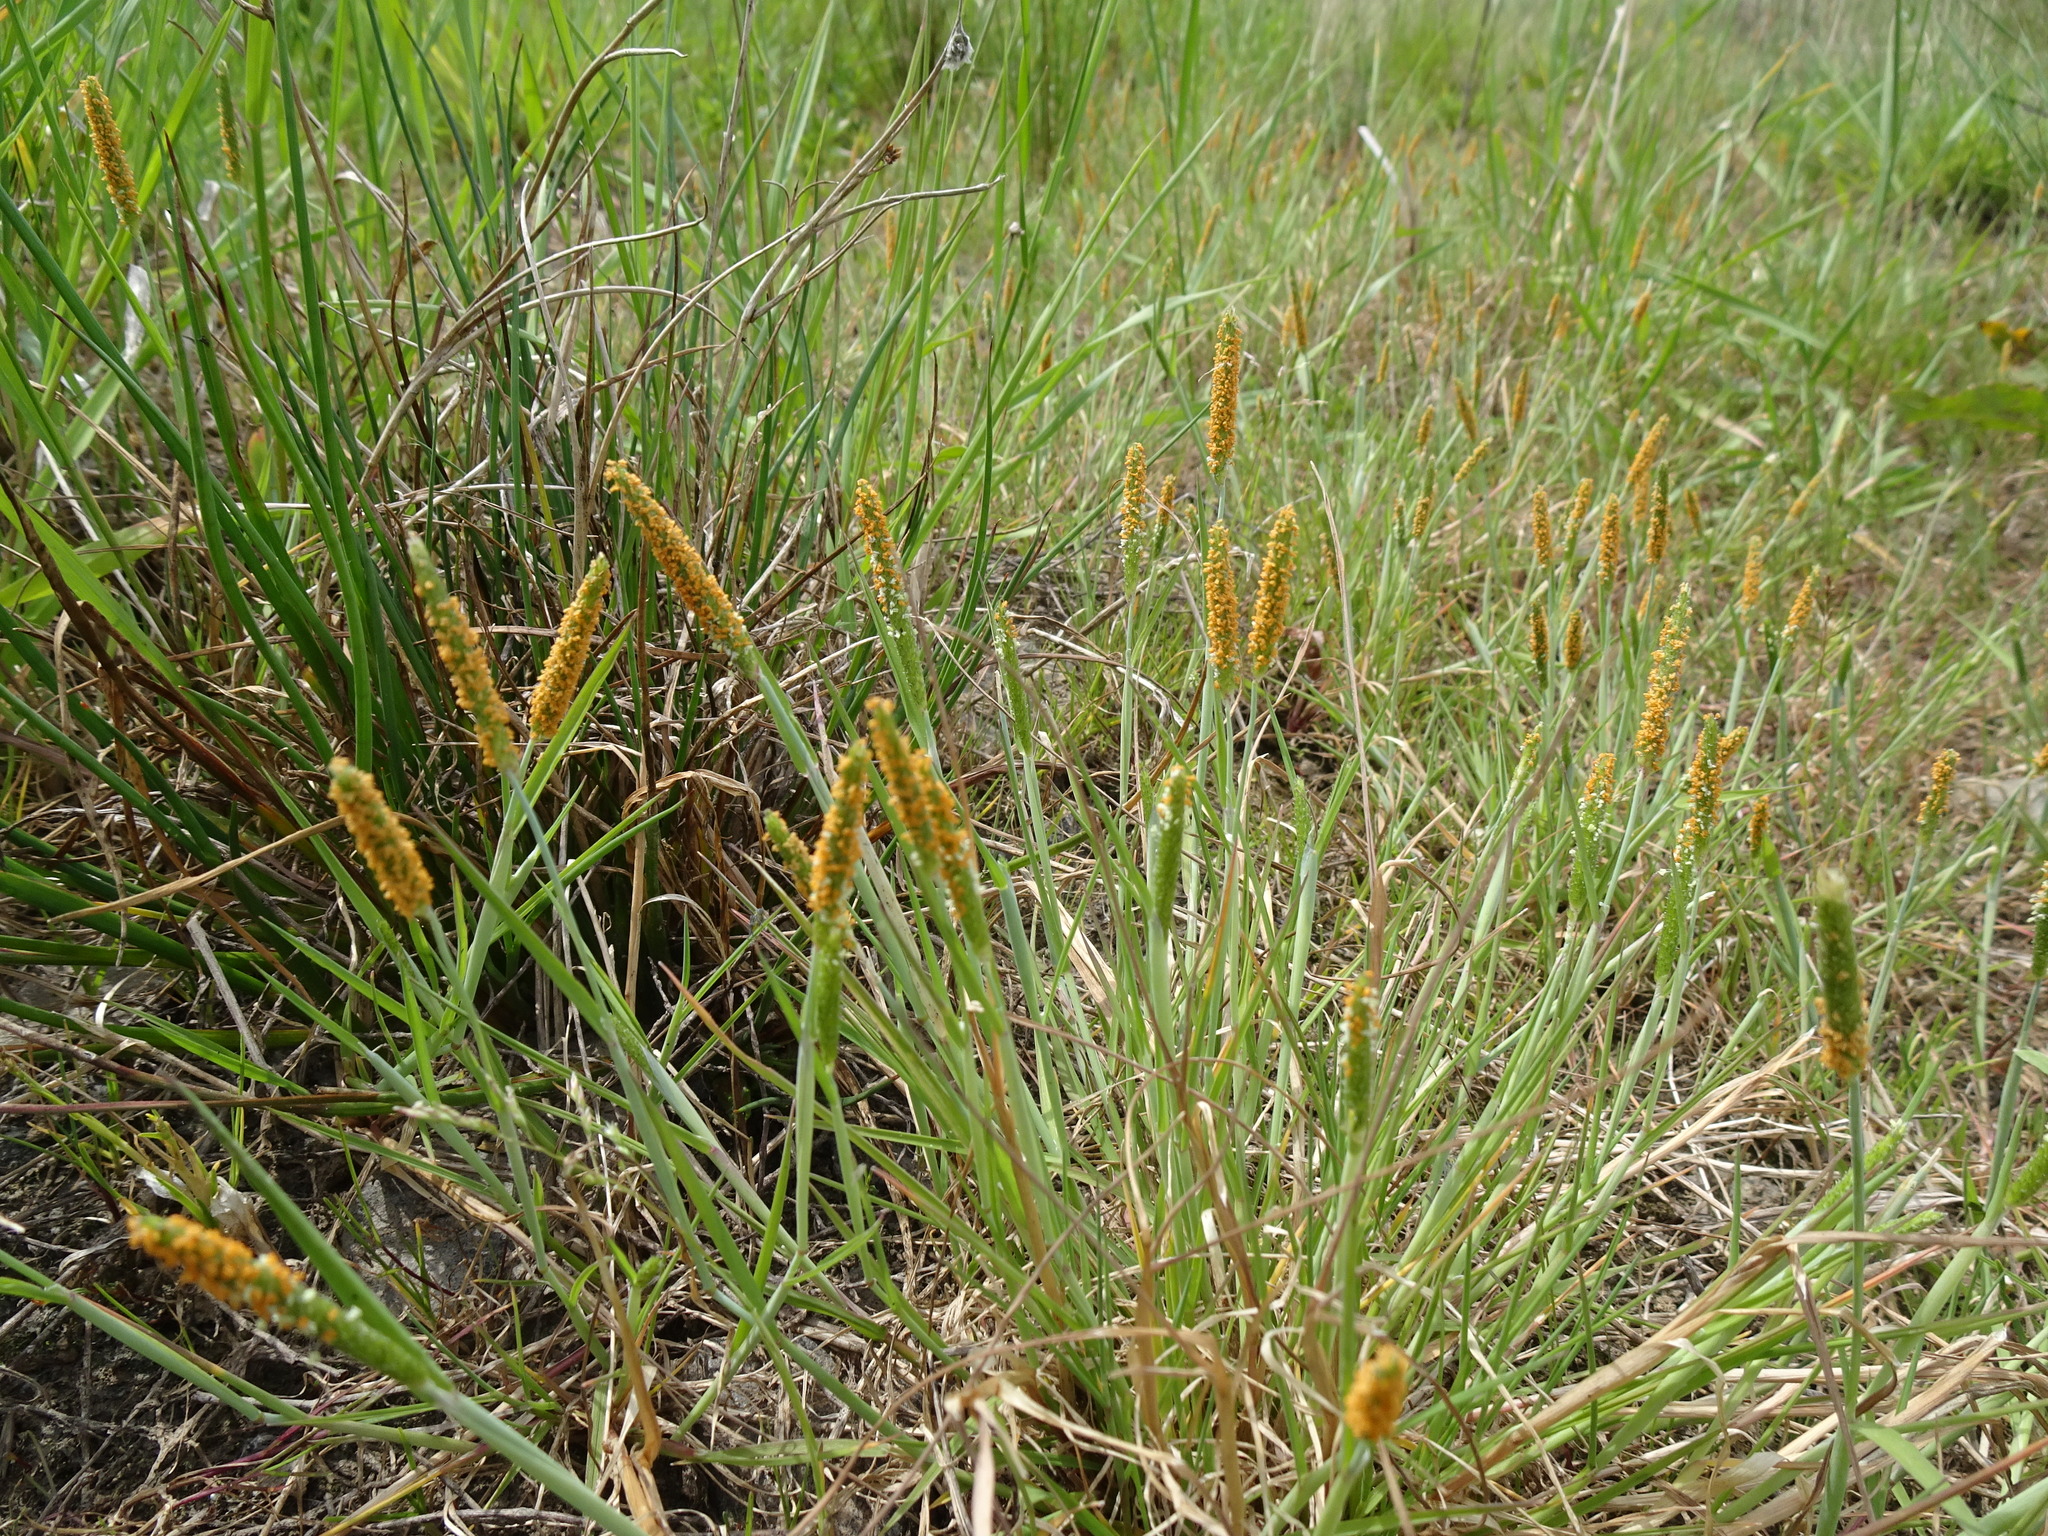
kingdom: Plantae
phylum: Tracheophyta
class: Liliopsida
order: Poales
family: Poaceae
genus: Alopecurus
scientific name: Alopecurus aequalis
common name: Orange foxtail
